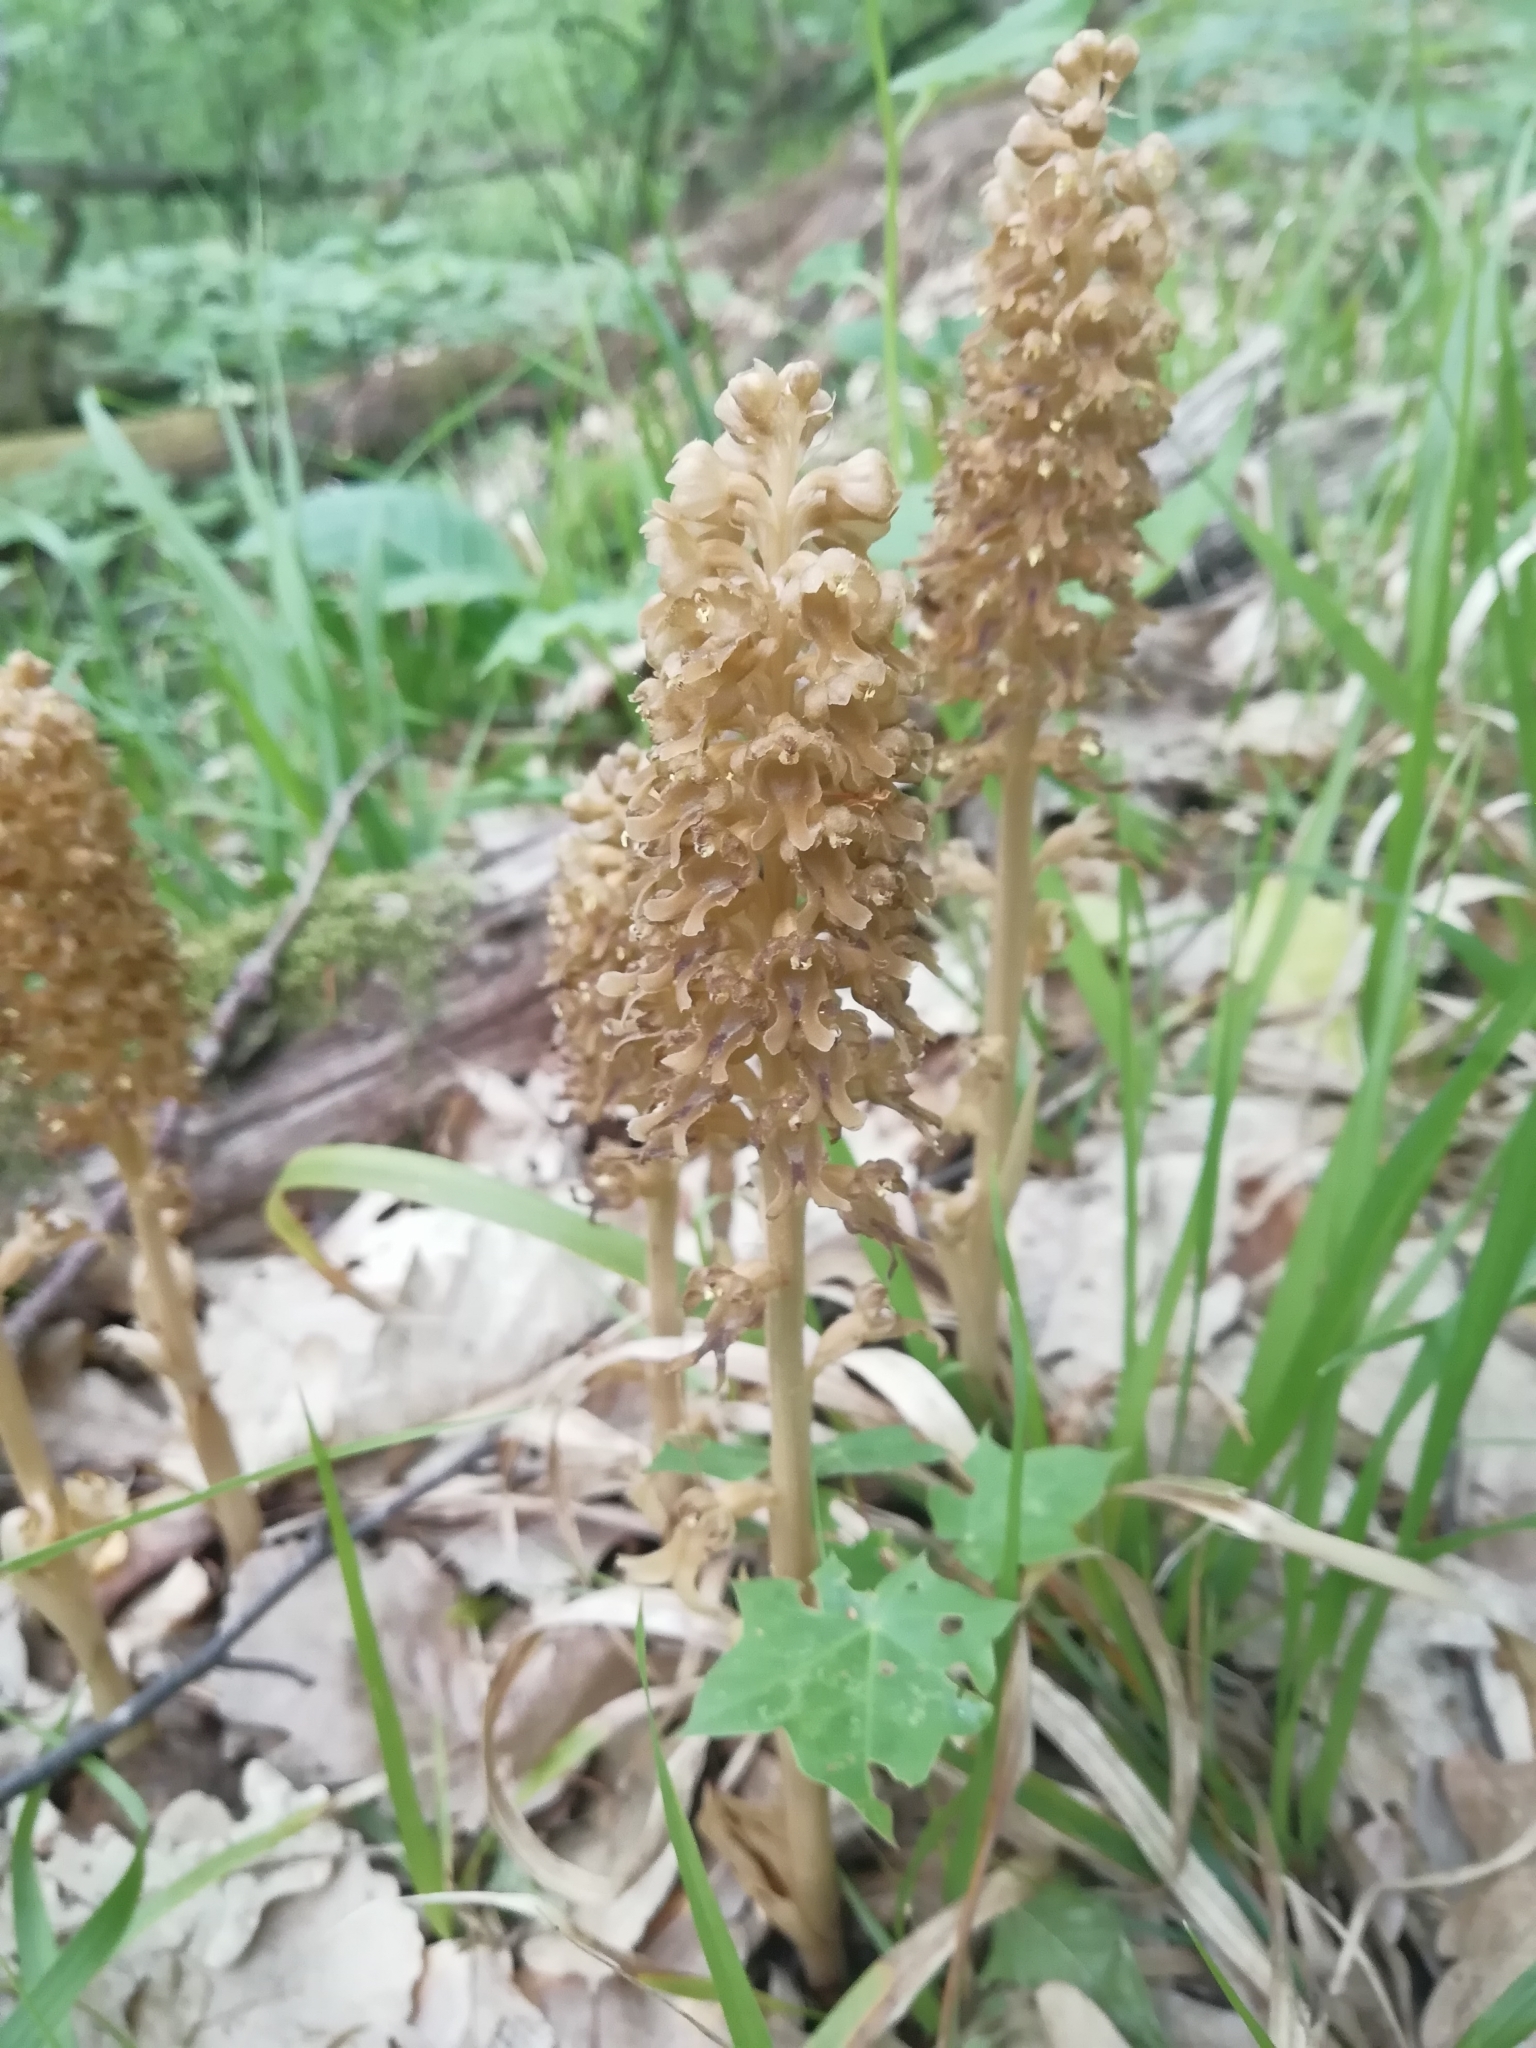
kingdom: Plantae
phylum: Tracheophyta
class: Liliopsida
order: Asparagales
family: Orchidaceae
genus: Neottia
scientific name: Neottia nidus-avis
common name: Bird's-nest orchid
